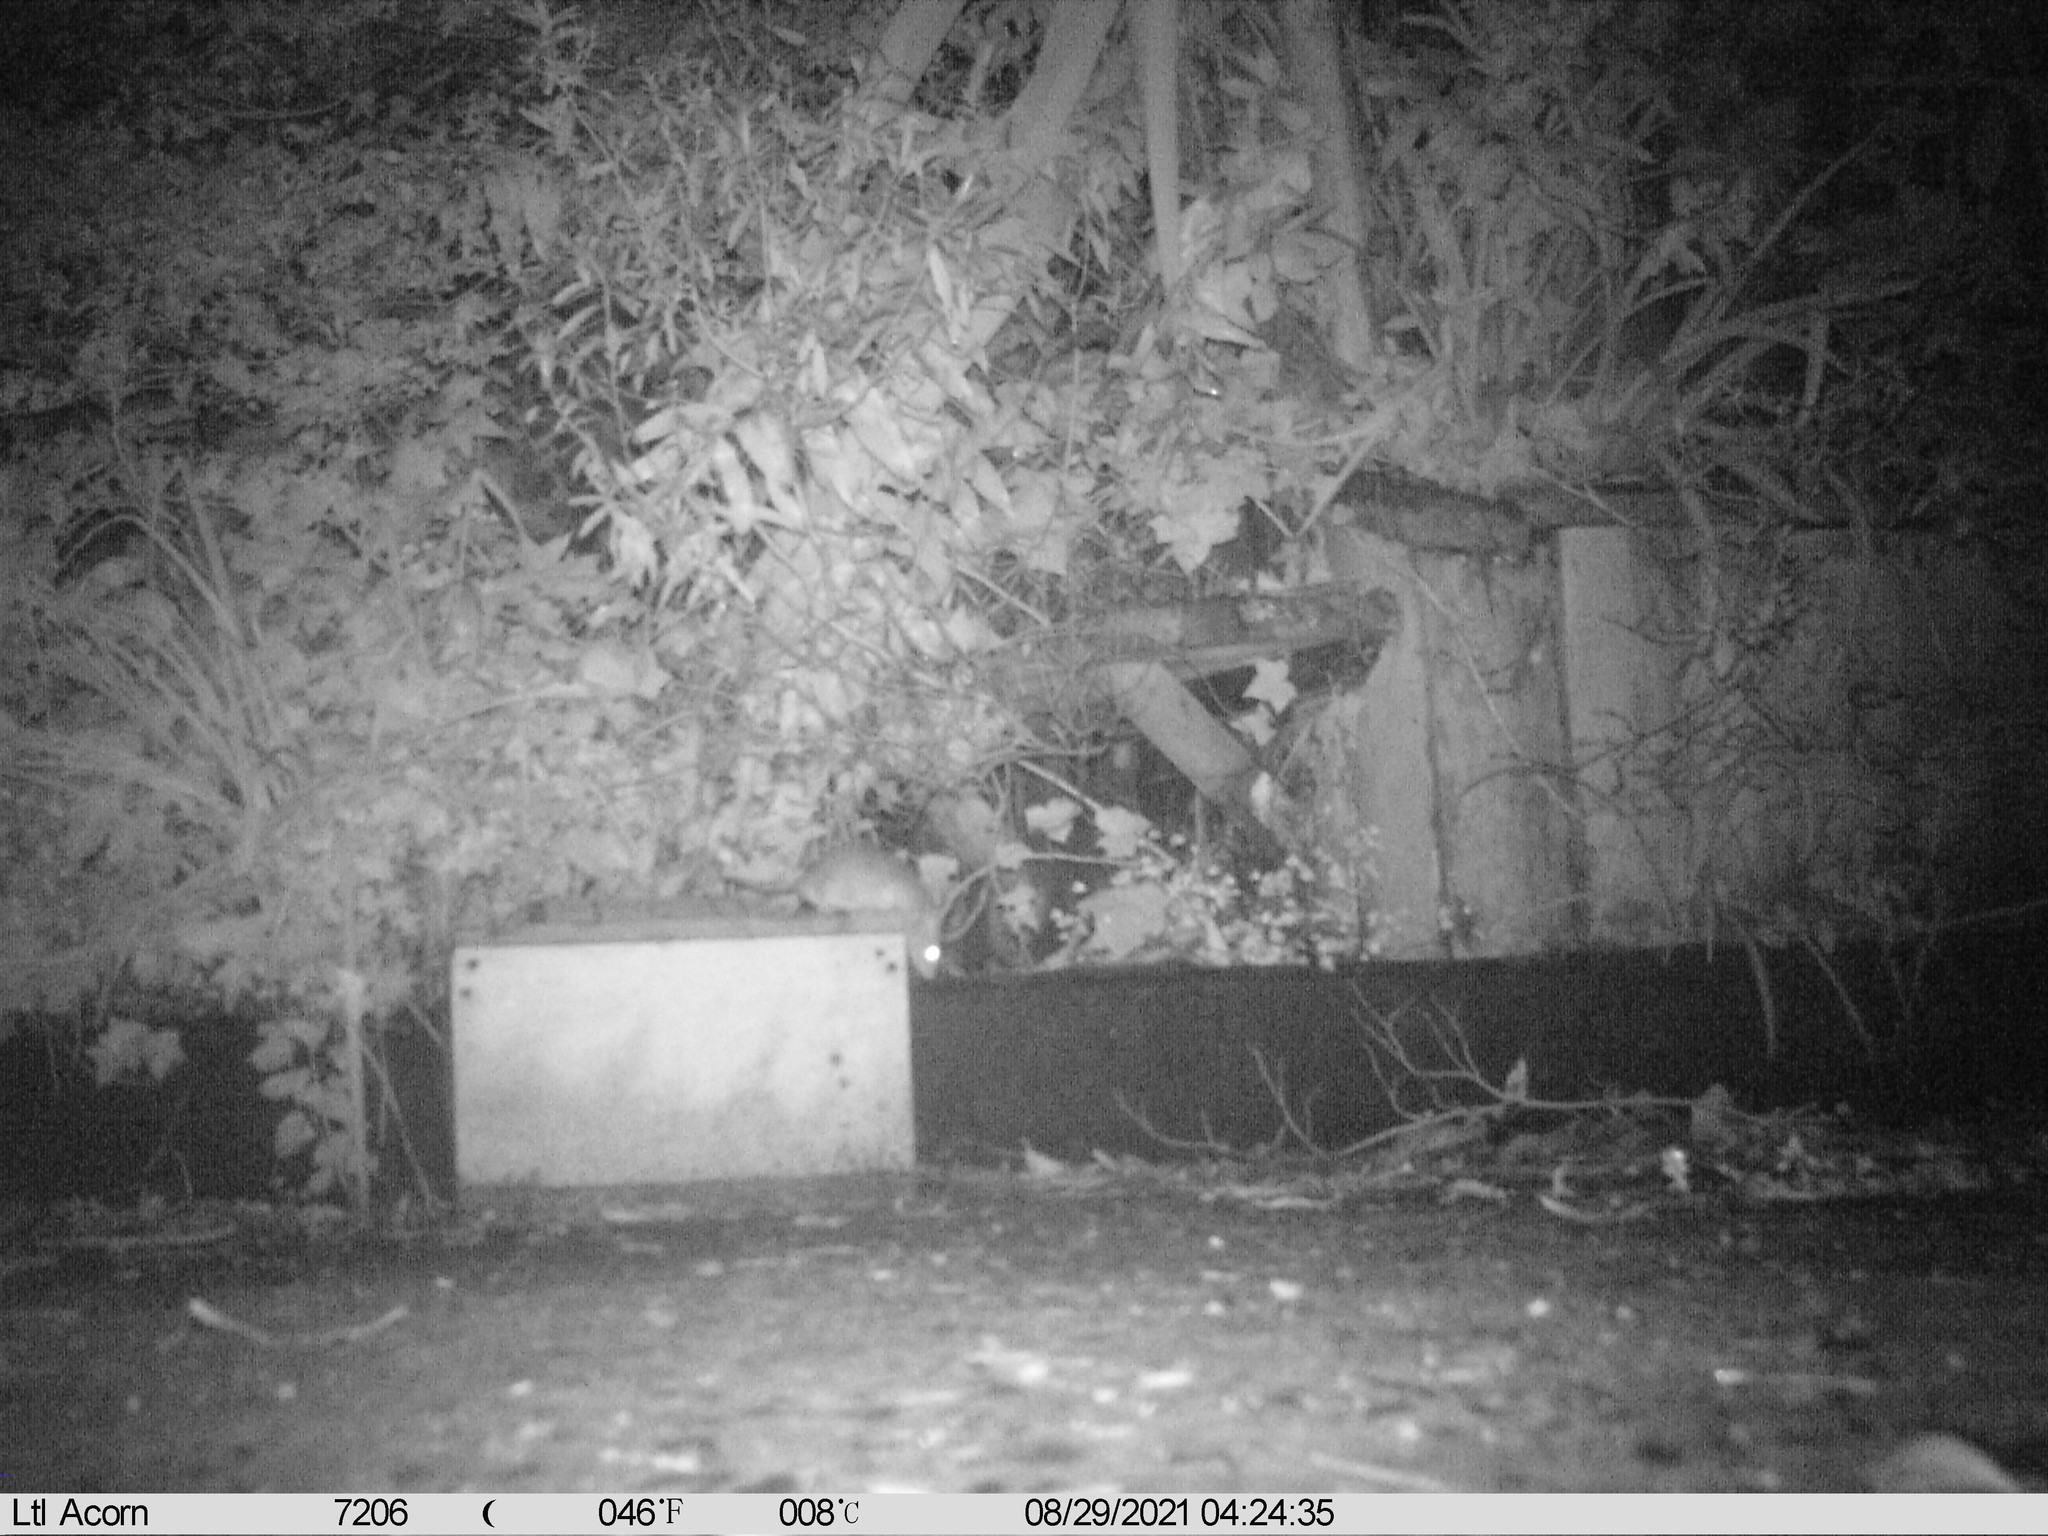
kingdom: Animalia
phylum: Chordata
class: Mammalia
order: Rodentia
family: Muridae
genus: Rattus
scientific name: Rattus rattus
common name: Black rat
